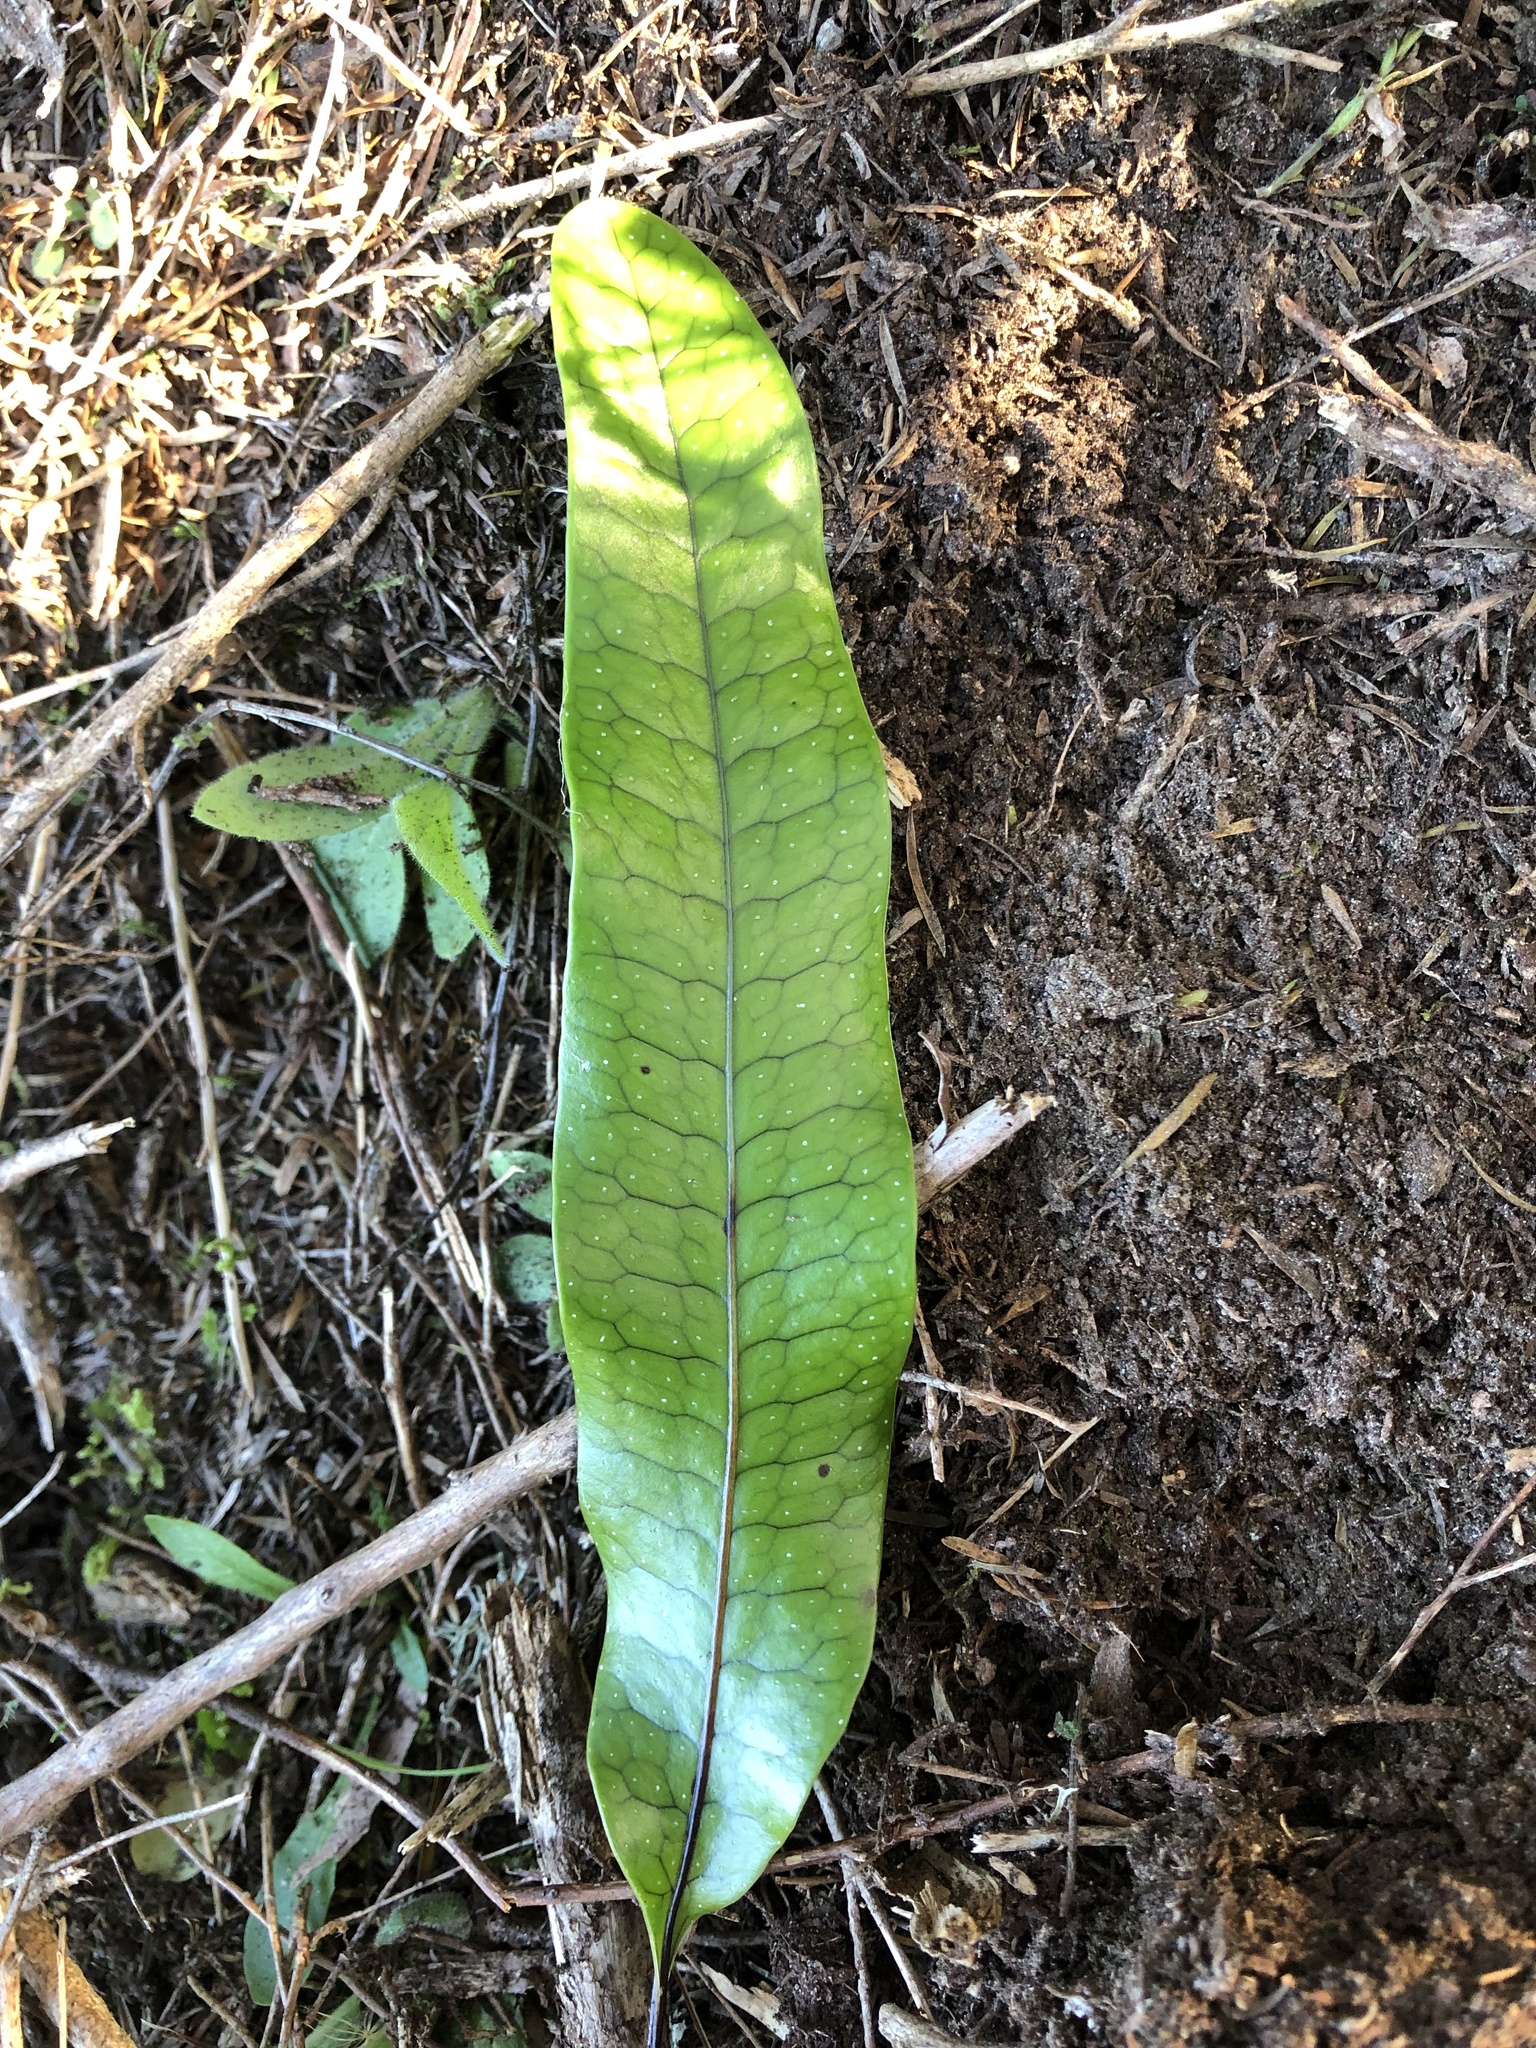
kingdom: Plantae
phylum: Tracheophyta
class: Polypodiopsida
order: Polypodiales
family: Polypodiaceae
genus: Lecanopteris
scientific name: Lecanopteris pustulata
